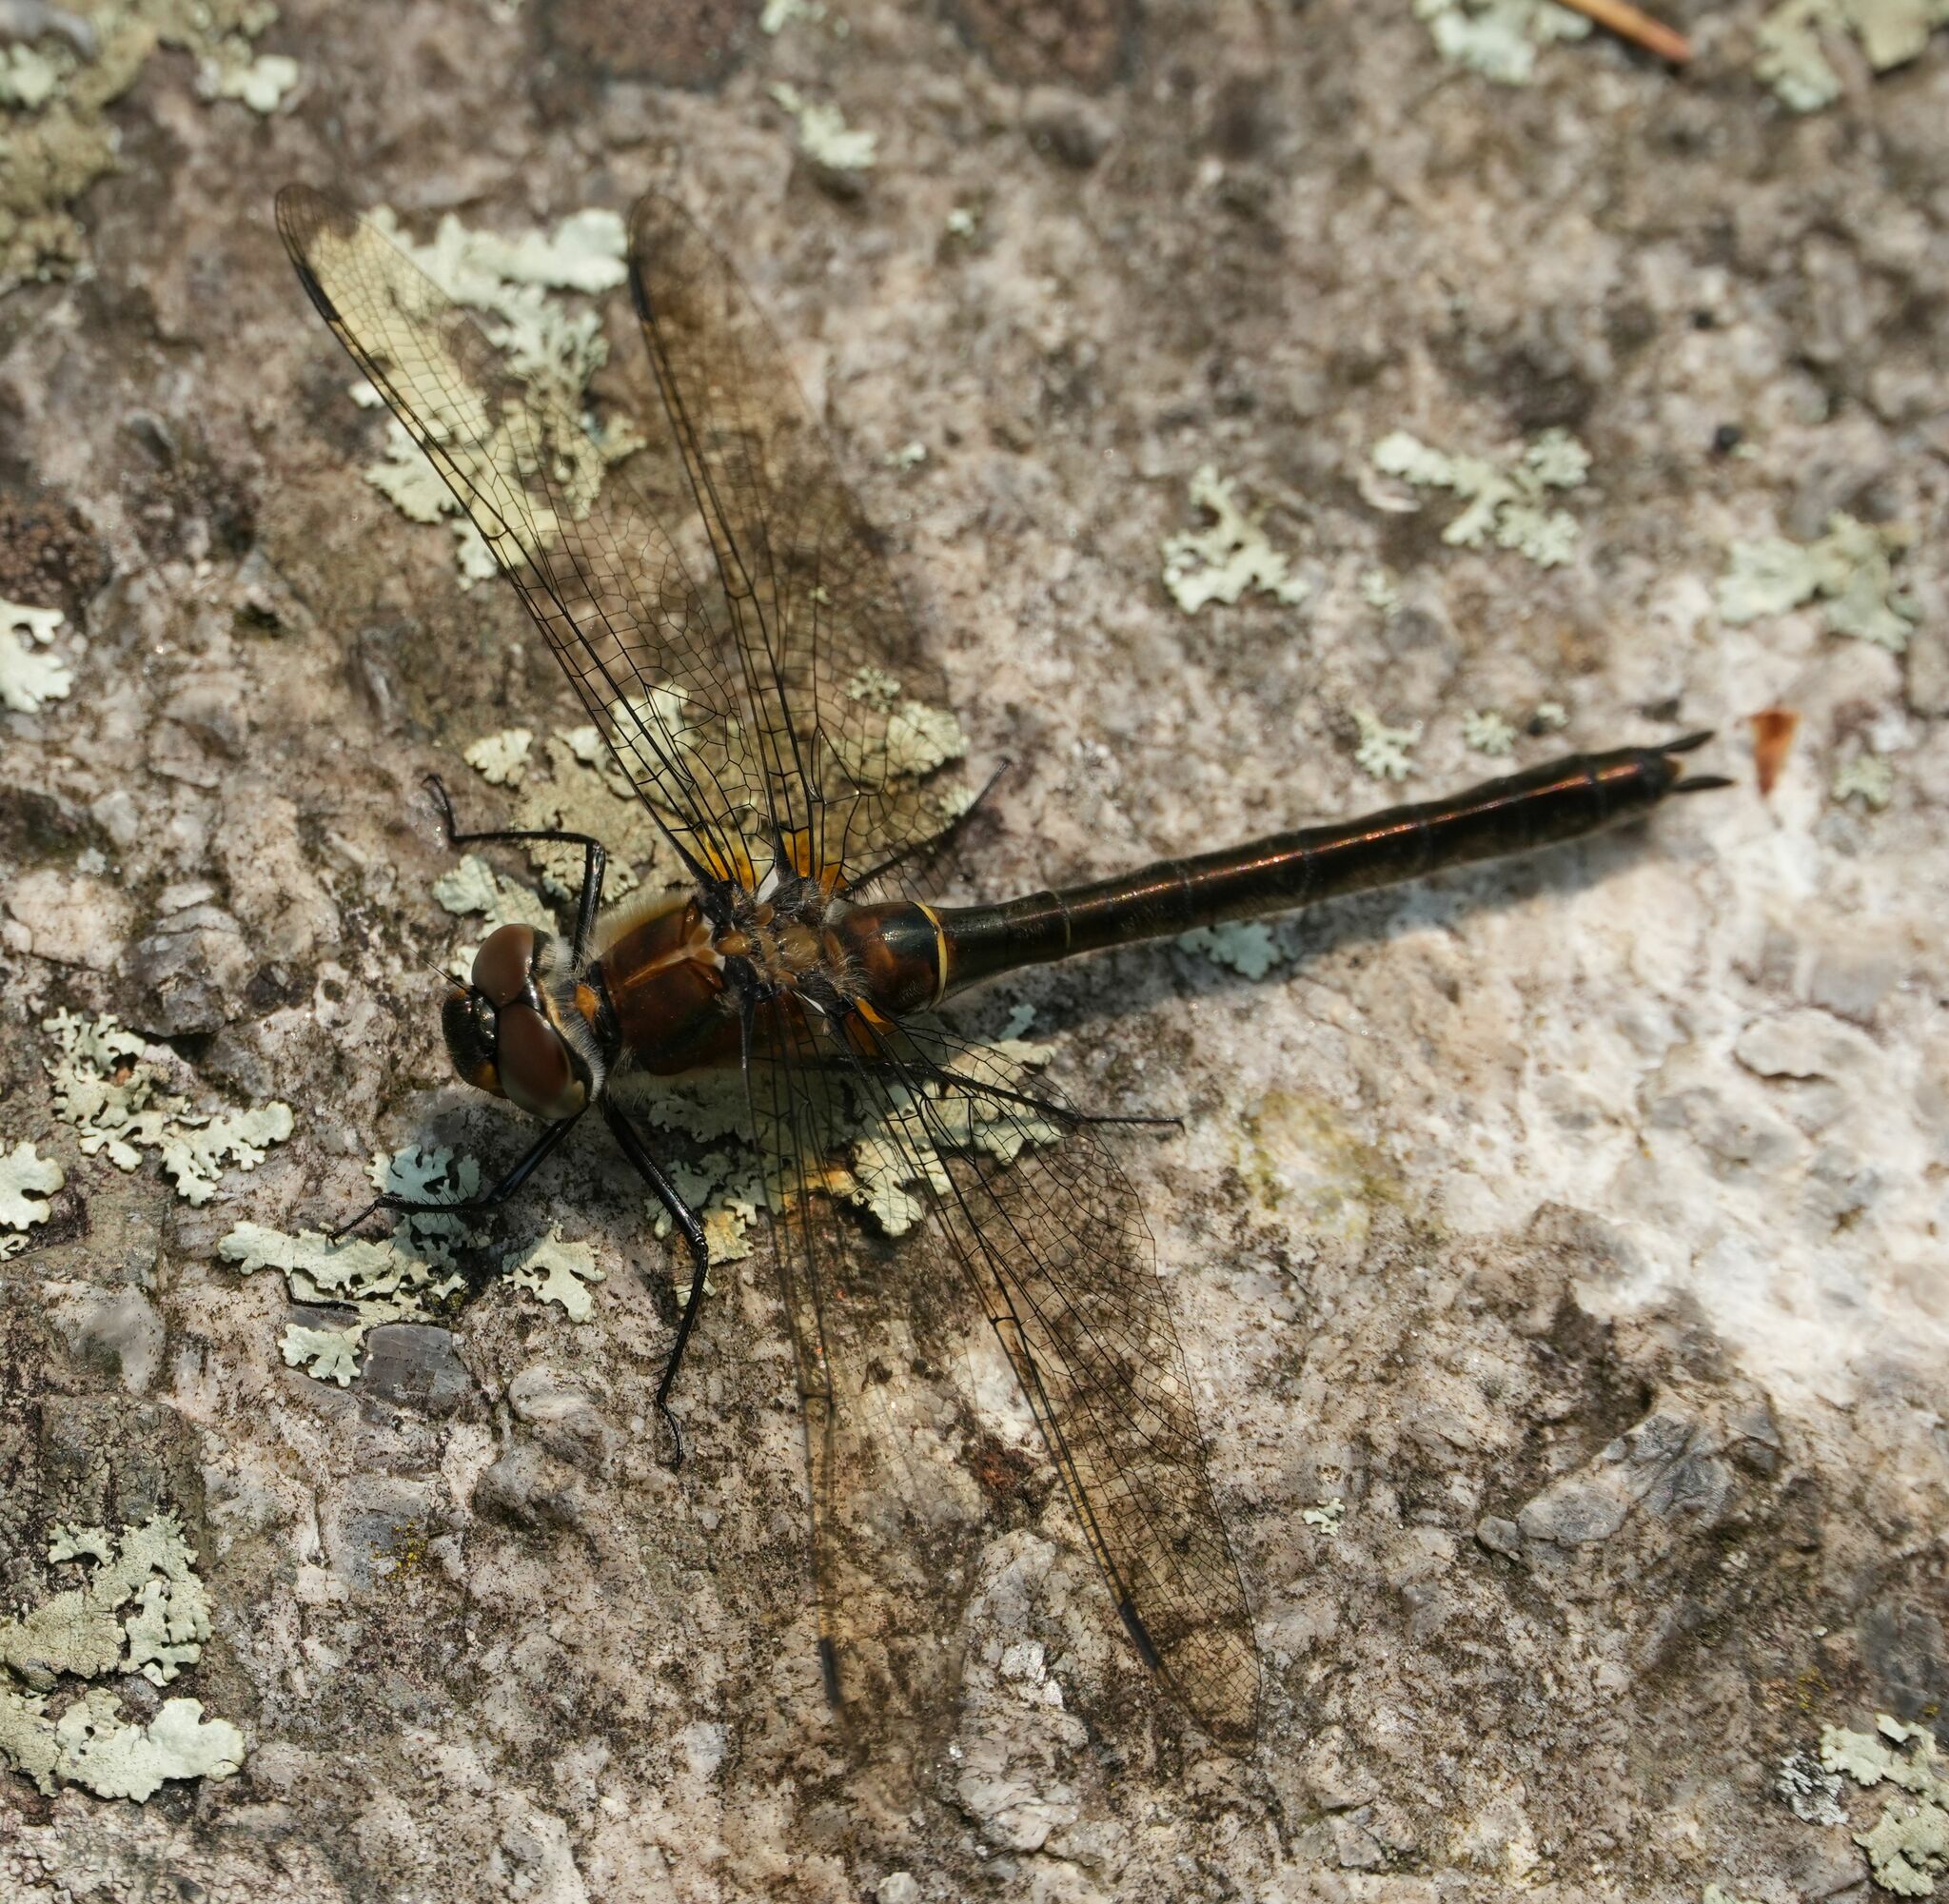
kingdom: Animalia
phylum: Arthropoda
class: Insecta
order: Odonata
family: Corduliidae
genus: Cordulia
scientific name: Cordulia shurtleffii
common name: American emerald
